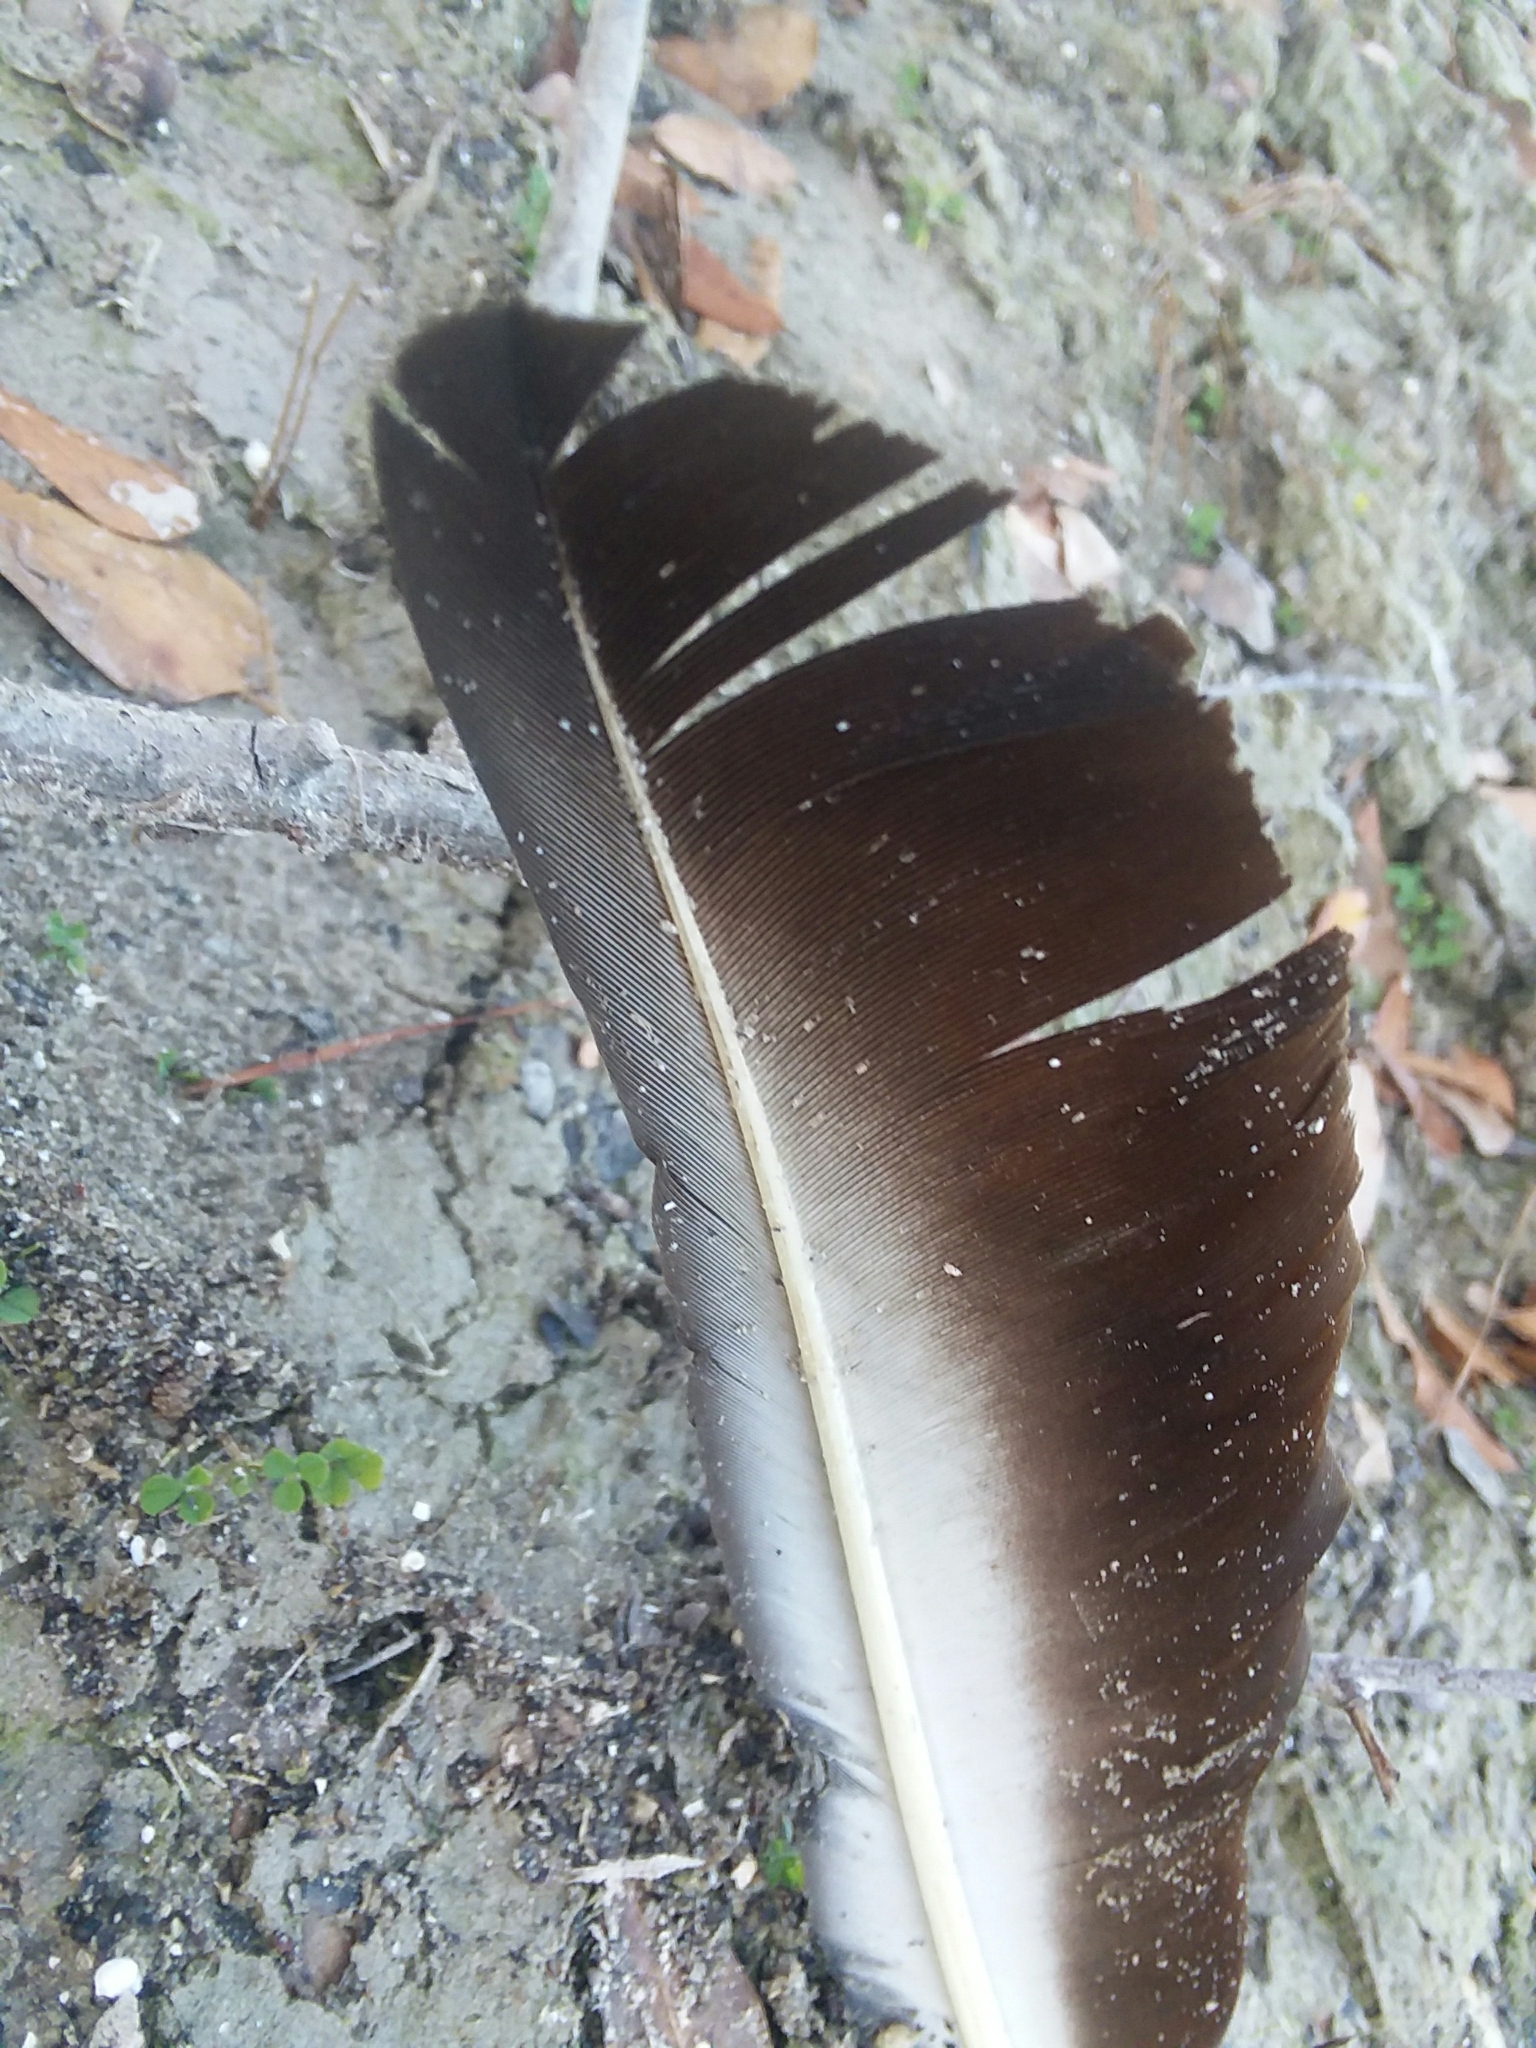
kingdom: Animalia
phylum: Chordata
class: Aves
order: Accipitriformes
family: Cathartidae
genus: Coragyps
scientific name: Coragyps atratus
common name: Black vulture
